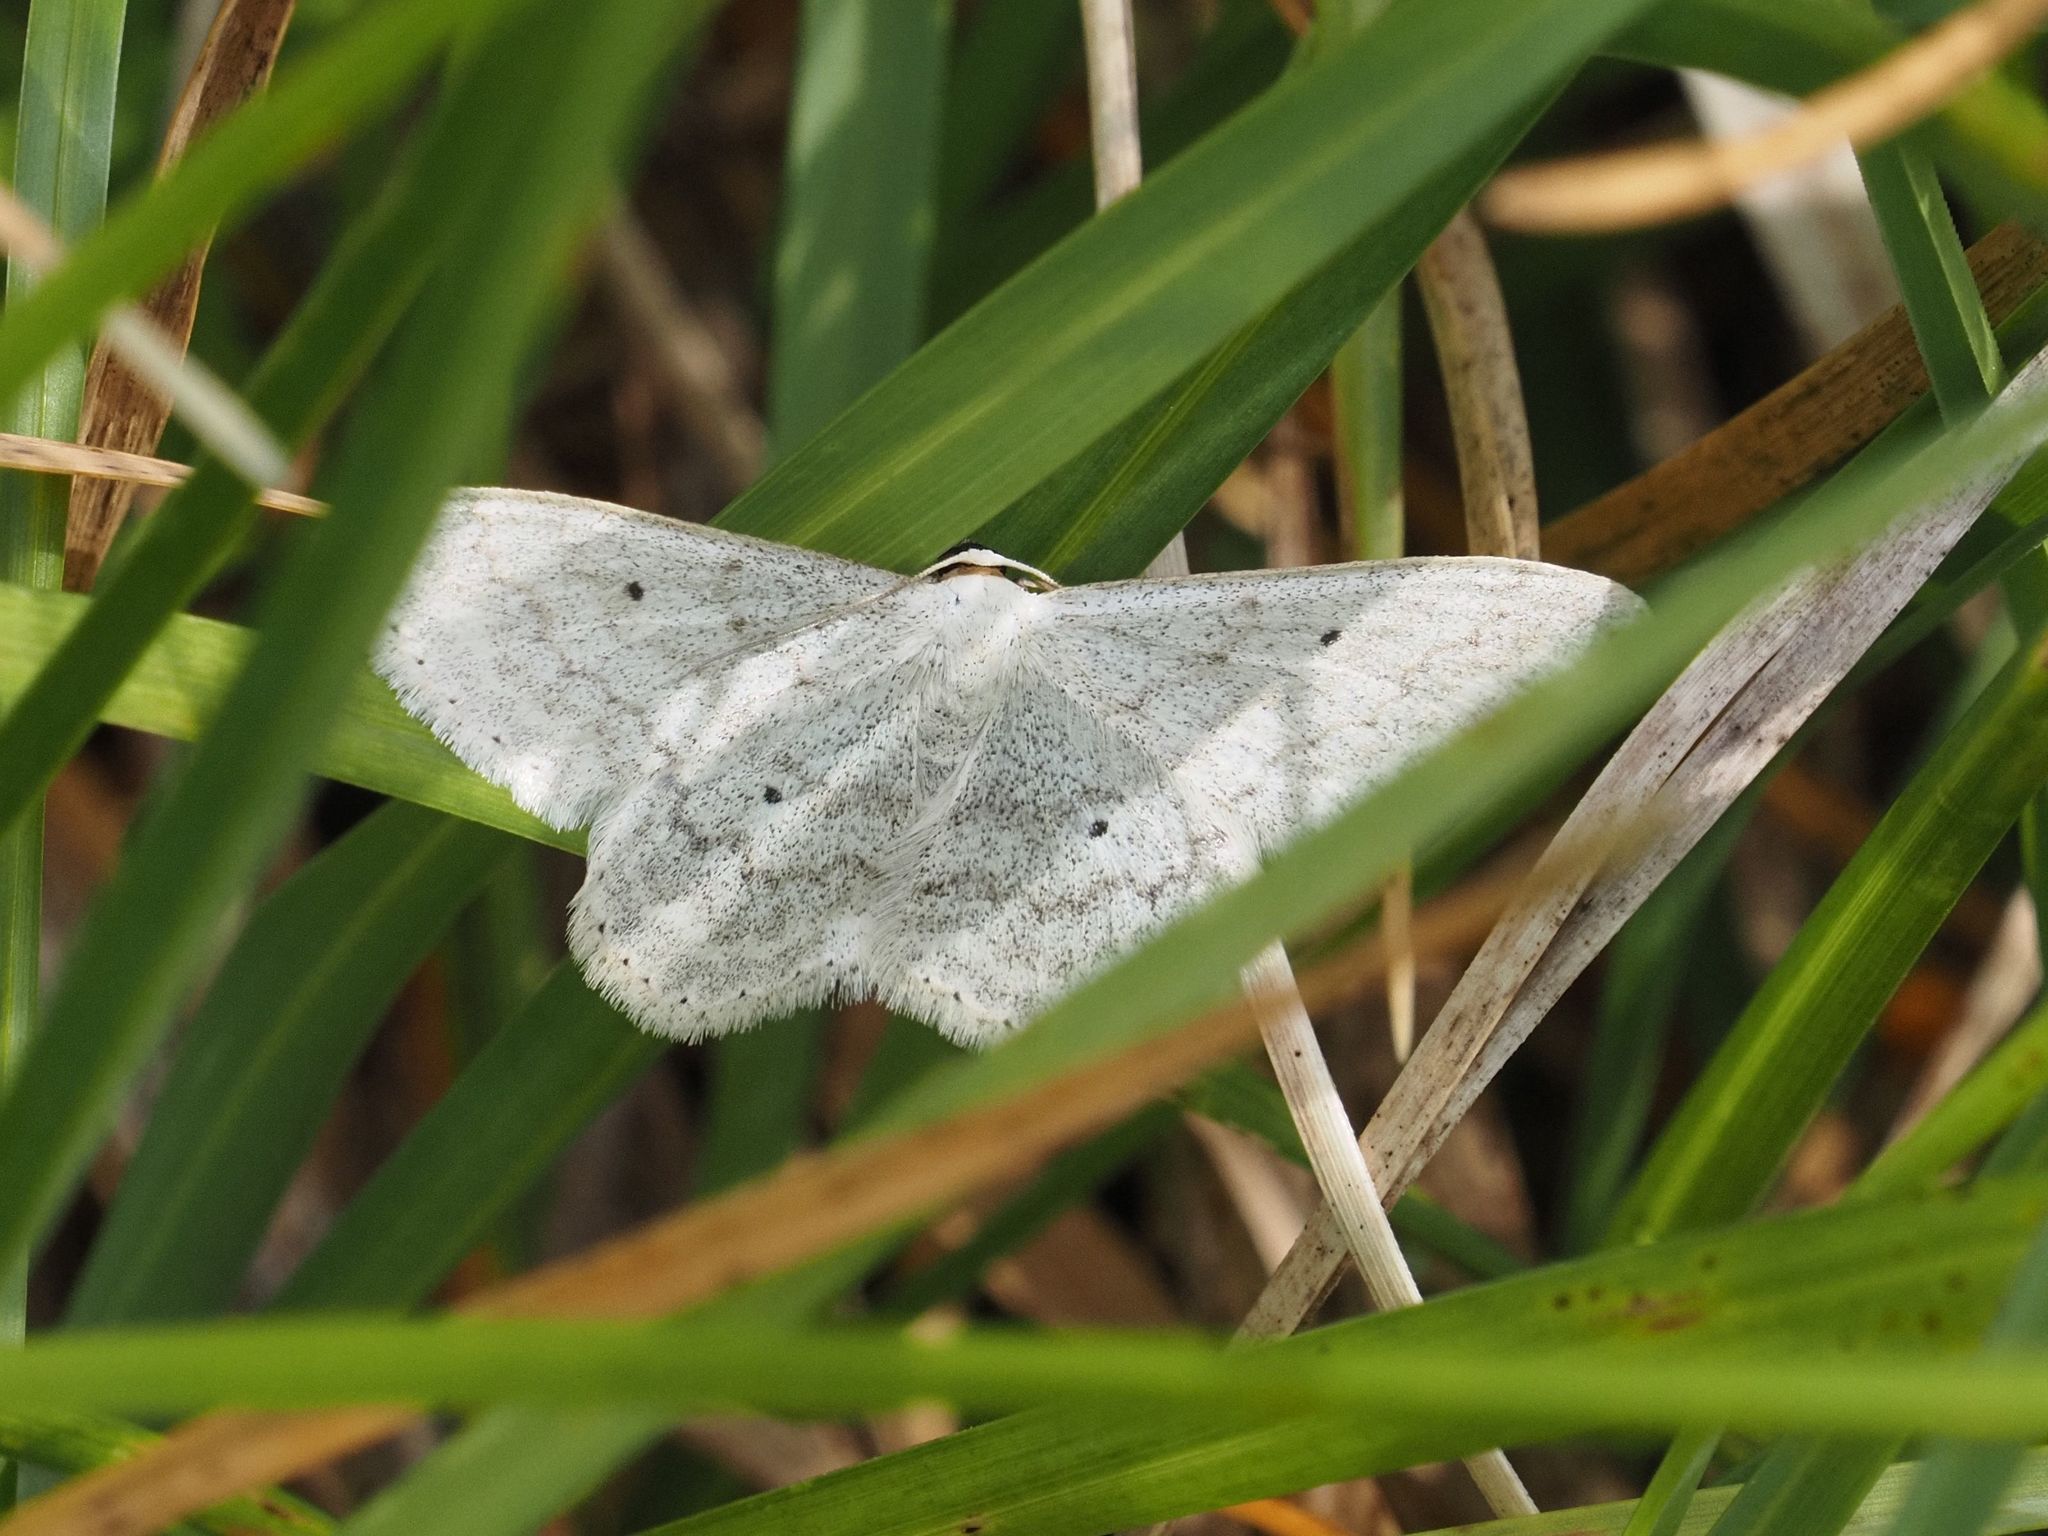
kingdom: Animalia
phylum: Arthropoda
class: Insecta
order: Lepidoptera
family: Geometridae
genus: Scopula
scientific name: Scopula incanata
